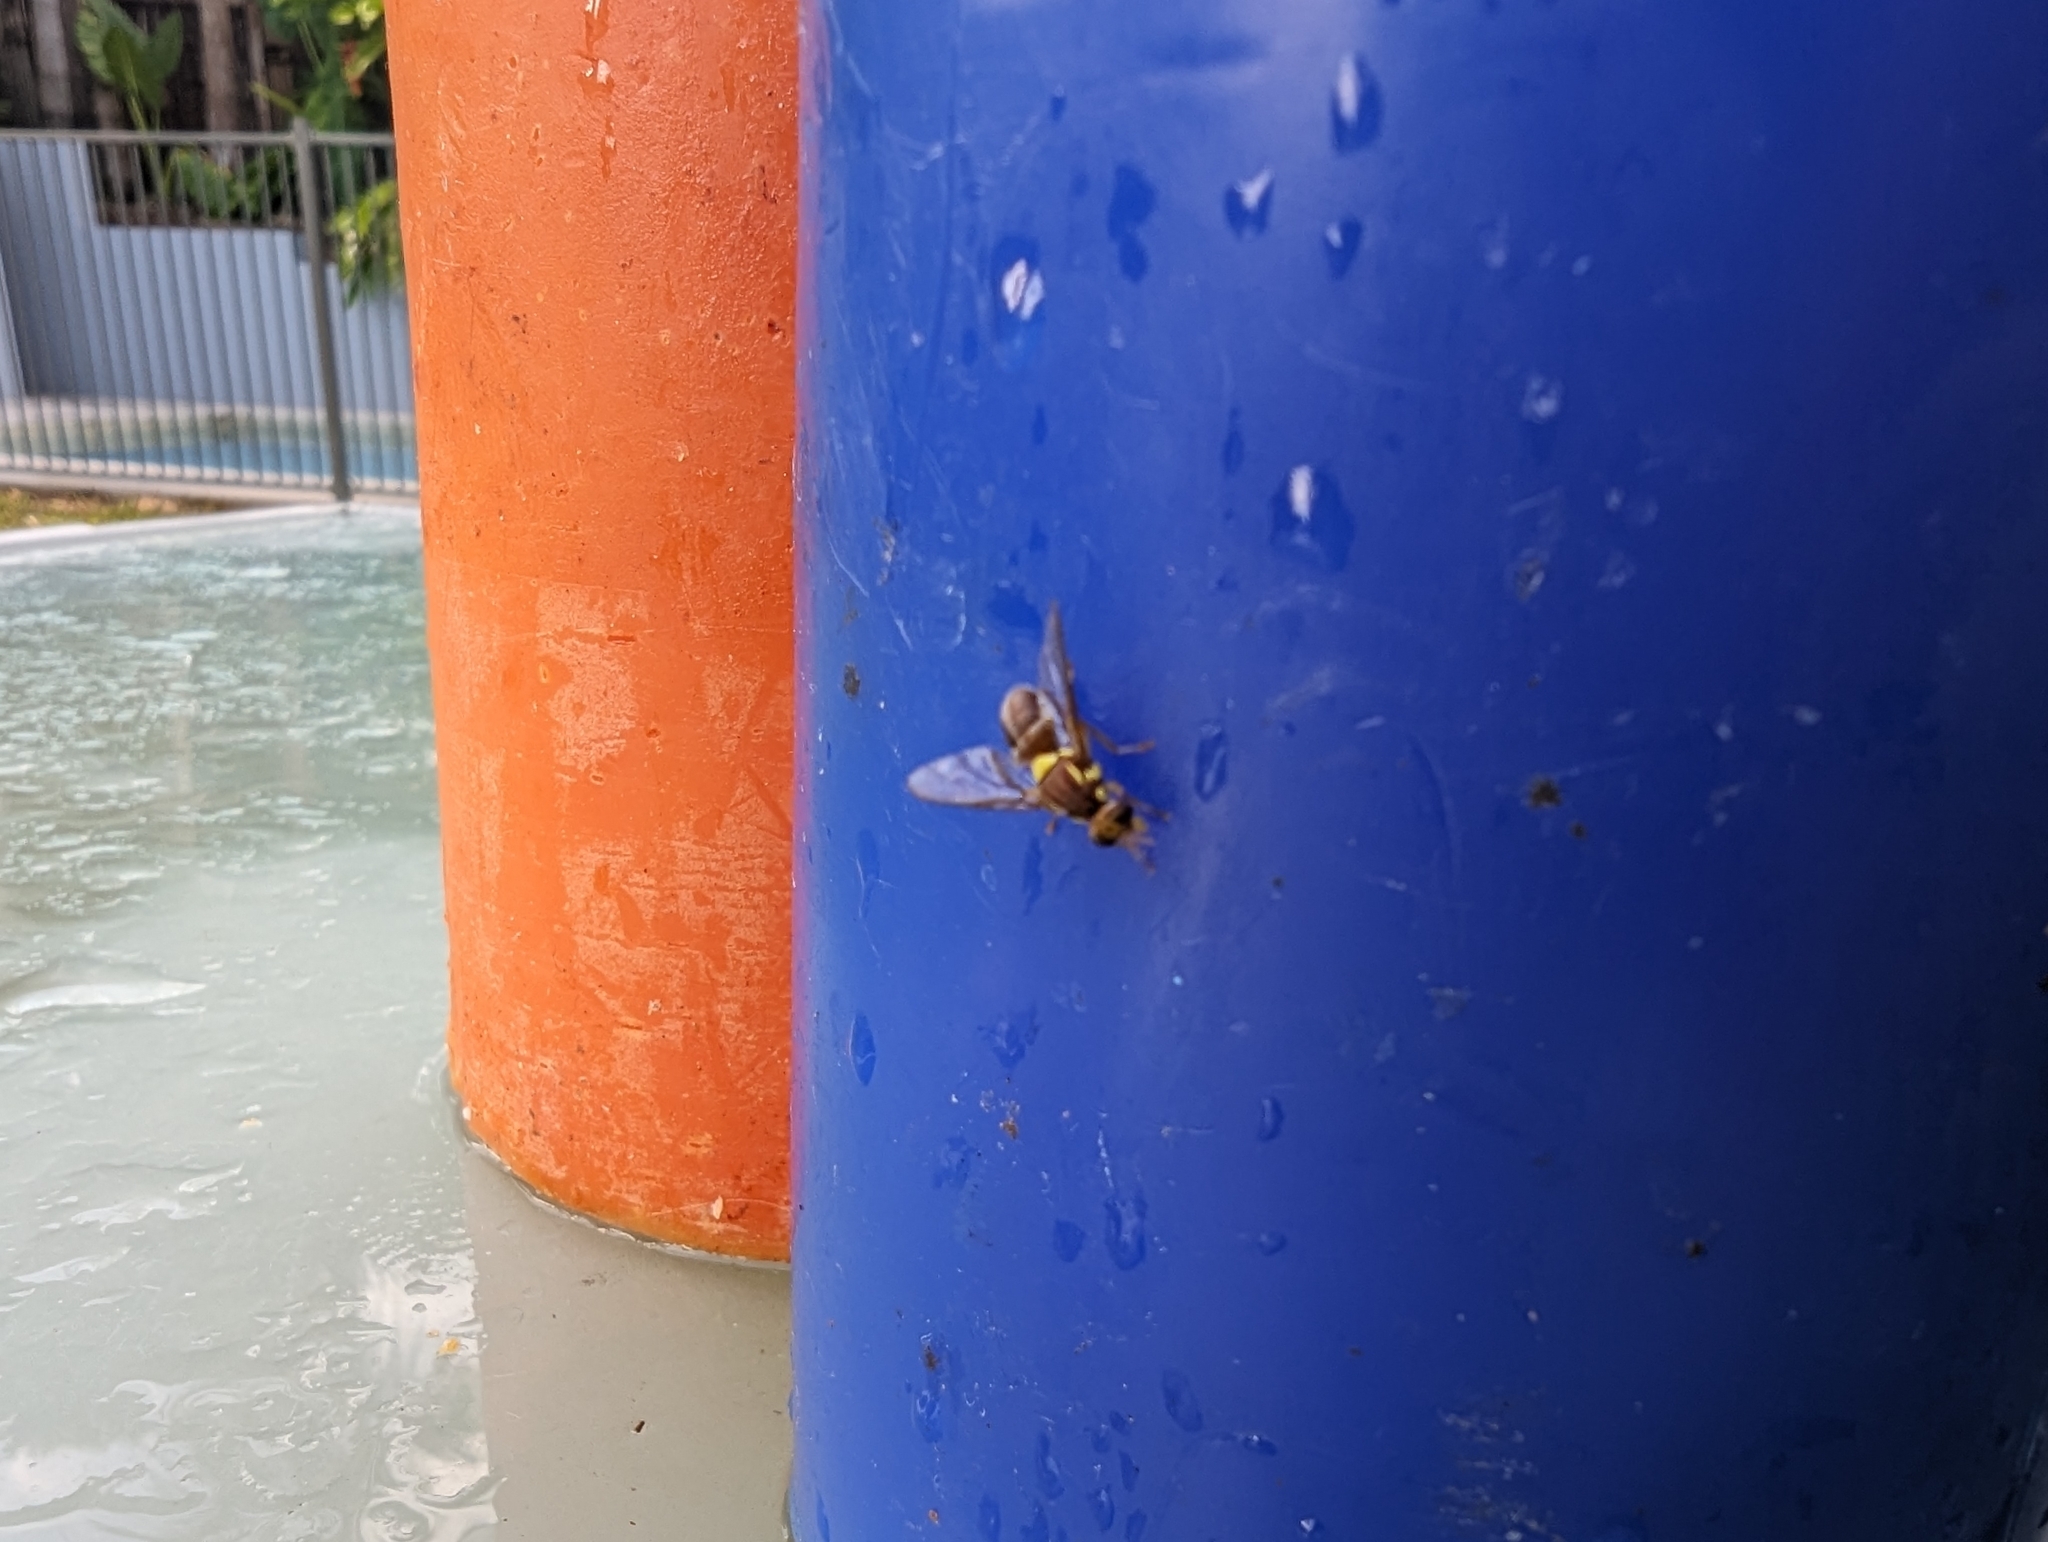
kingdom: Animalia
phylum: Arthropoda
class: Insecta
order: Diptera
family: Tephritidae
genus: Bactrocera
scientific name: Bactrocera tryoni
